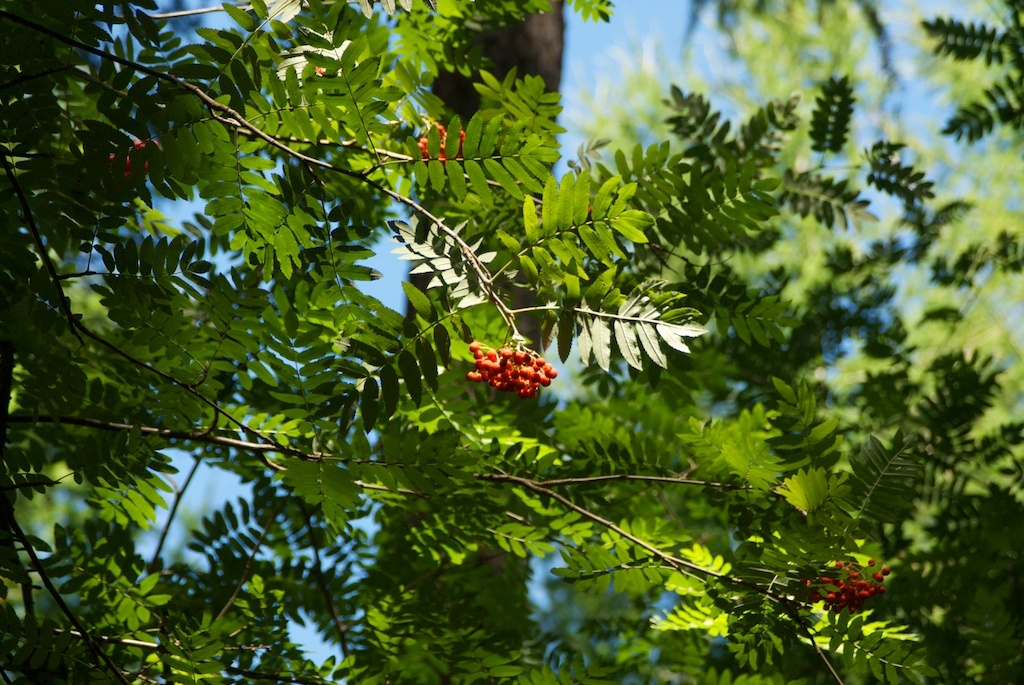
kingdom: Plantae
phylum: Tracheophyta
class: Magnoliopsida
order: Rosales
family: Rosaceae
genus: Sorbus
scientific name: Sorbus aucuparia
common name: Rowan
